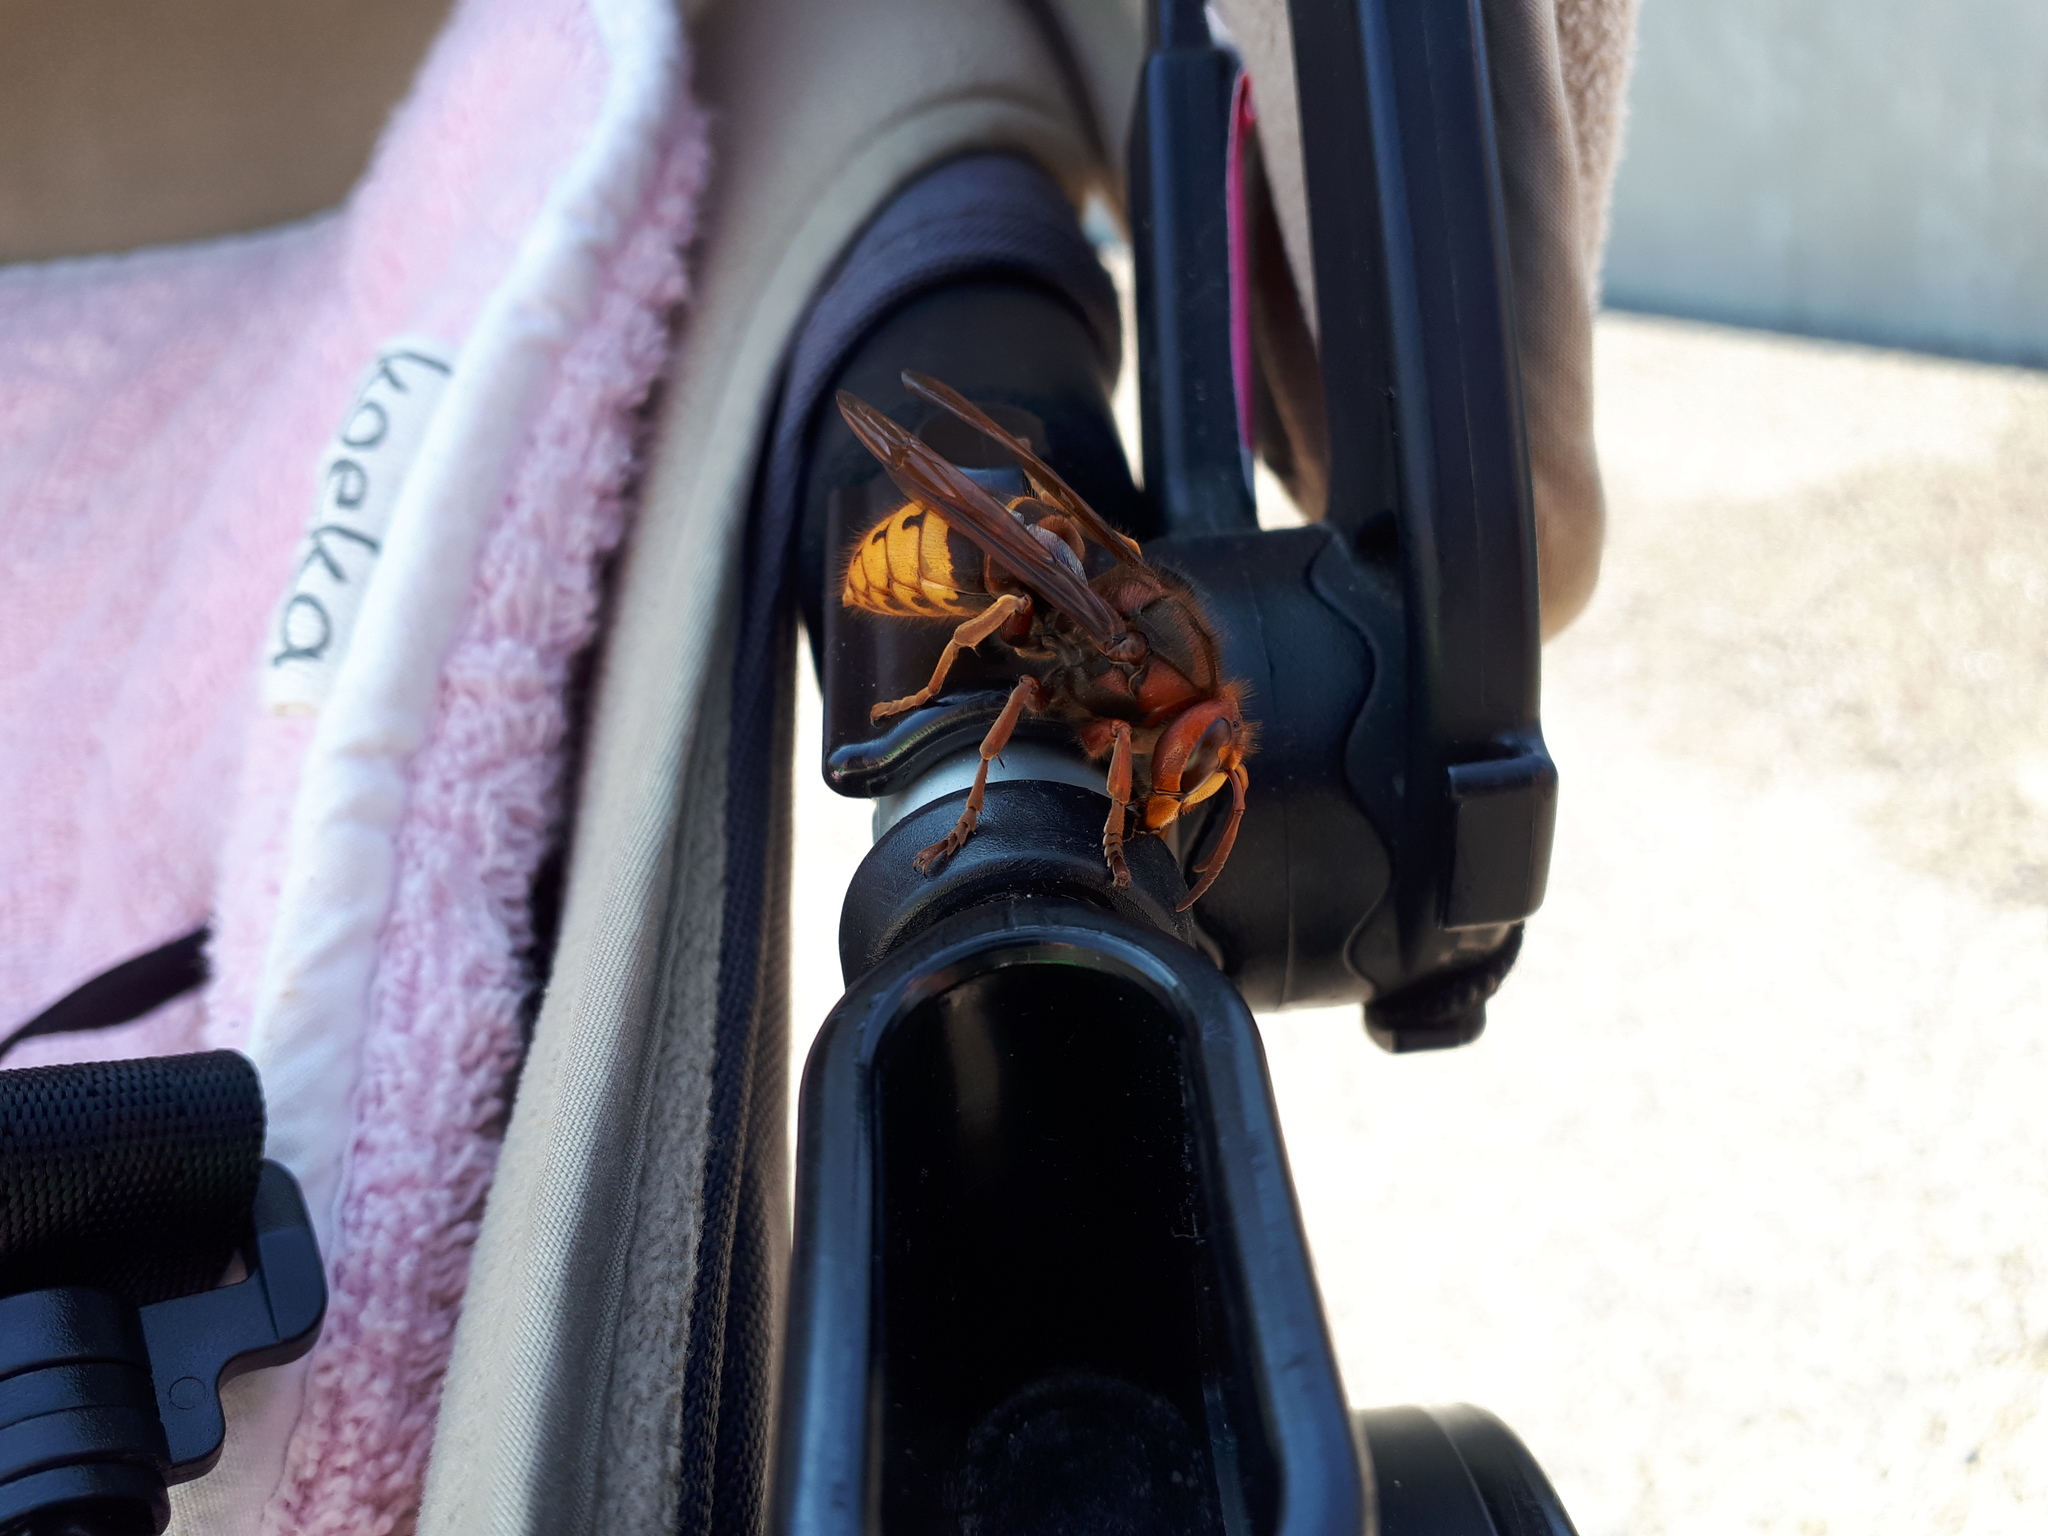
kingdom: Animalia
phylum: Arthropoda
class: Insecta
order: Hymenoptera
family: Vespidae
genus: Vespa
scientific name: Vespa crabro
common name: Hornet
